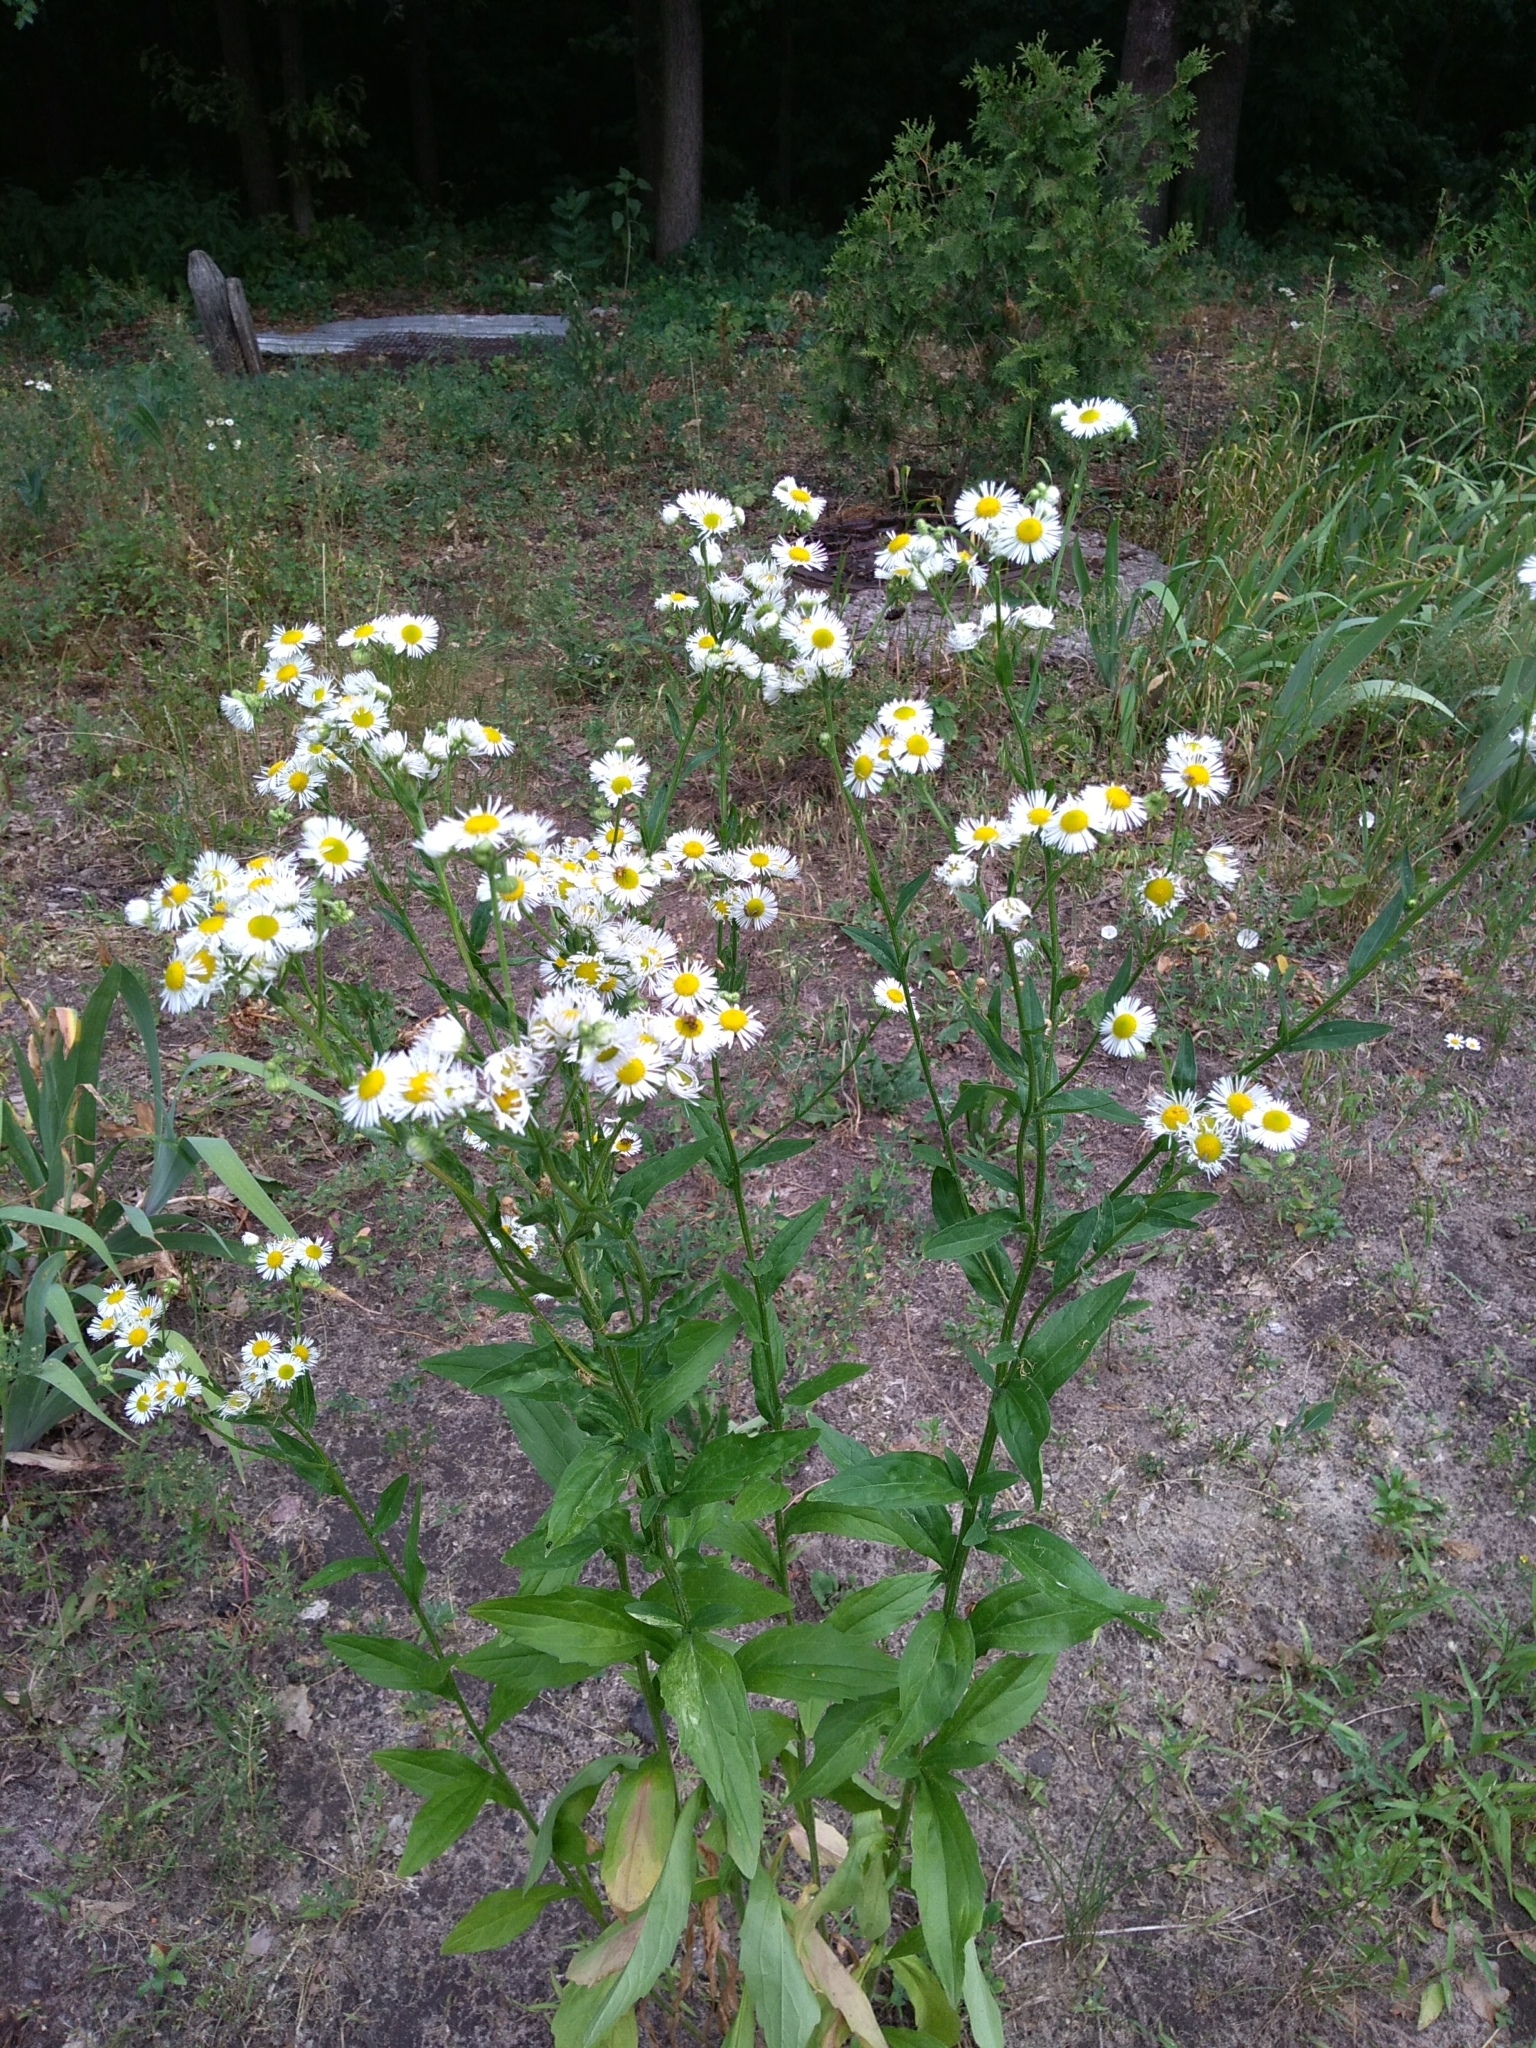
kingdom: Plantae
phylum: Tracheophyta
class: Magnoliopsida
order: Asterales
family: Asteraceae
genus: Erigeron
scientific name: Erigeron annuus
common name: Tall fleabane
